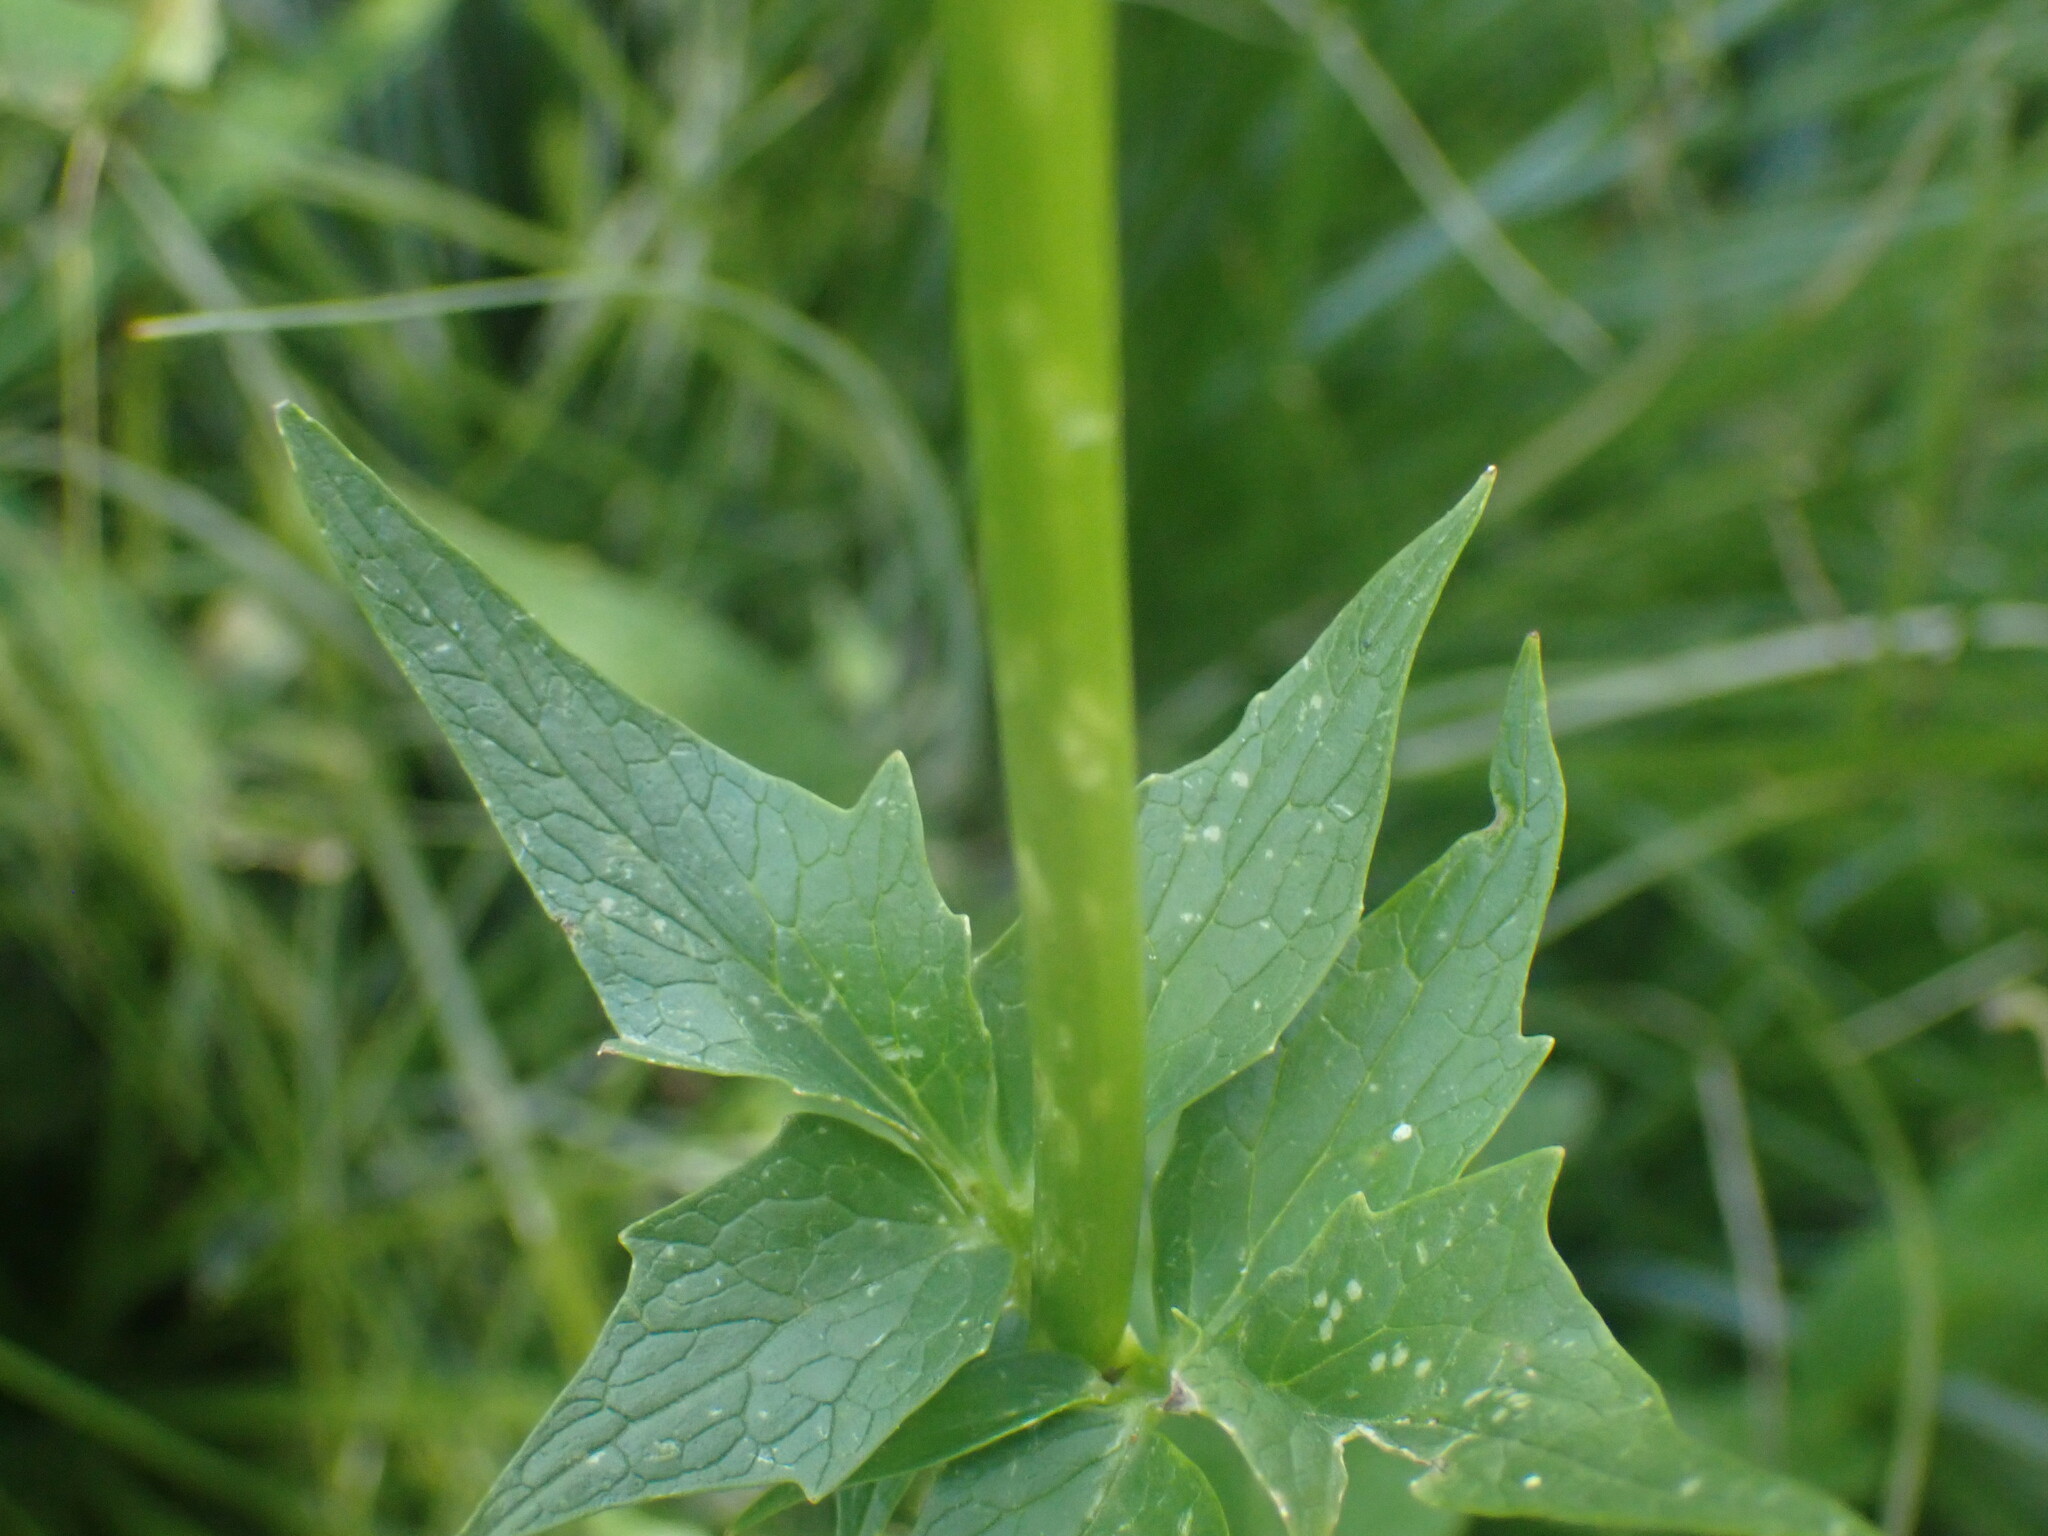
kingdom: Plantae
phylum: Tracheophyta
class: Magnoliopsida
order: Dipsacales
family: Caprifoliaceae
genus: Valeriana
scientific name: Valeriana sitchensis
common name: Pacific valerian
